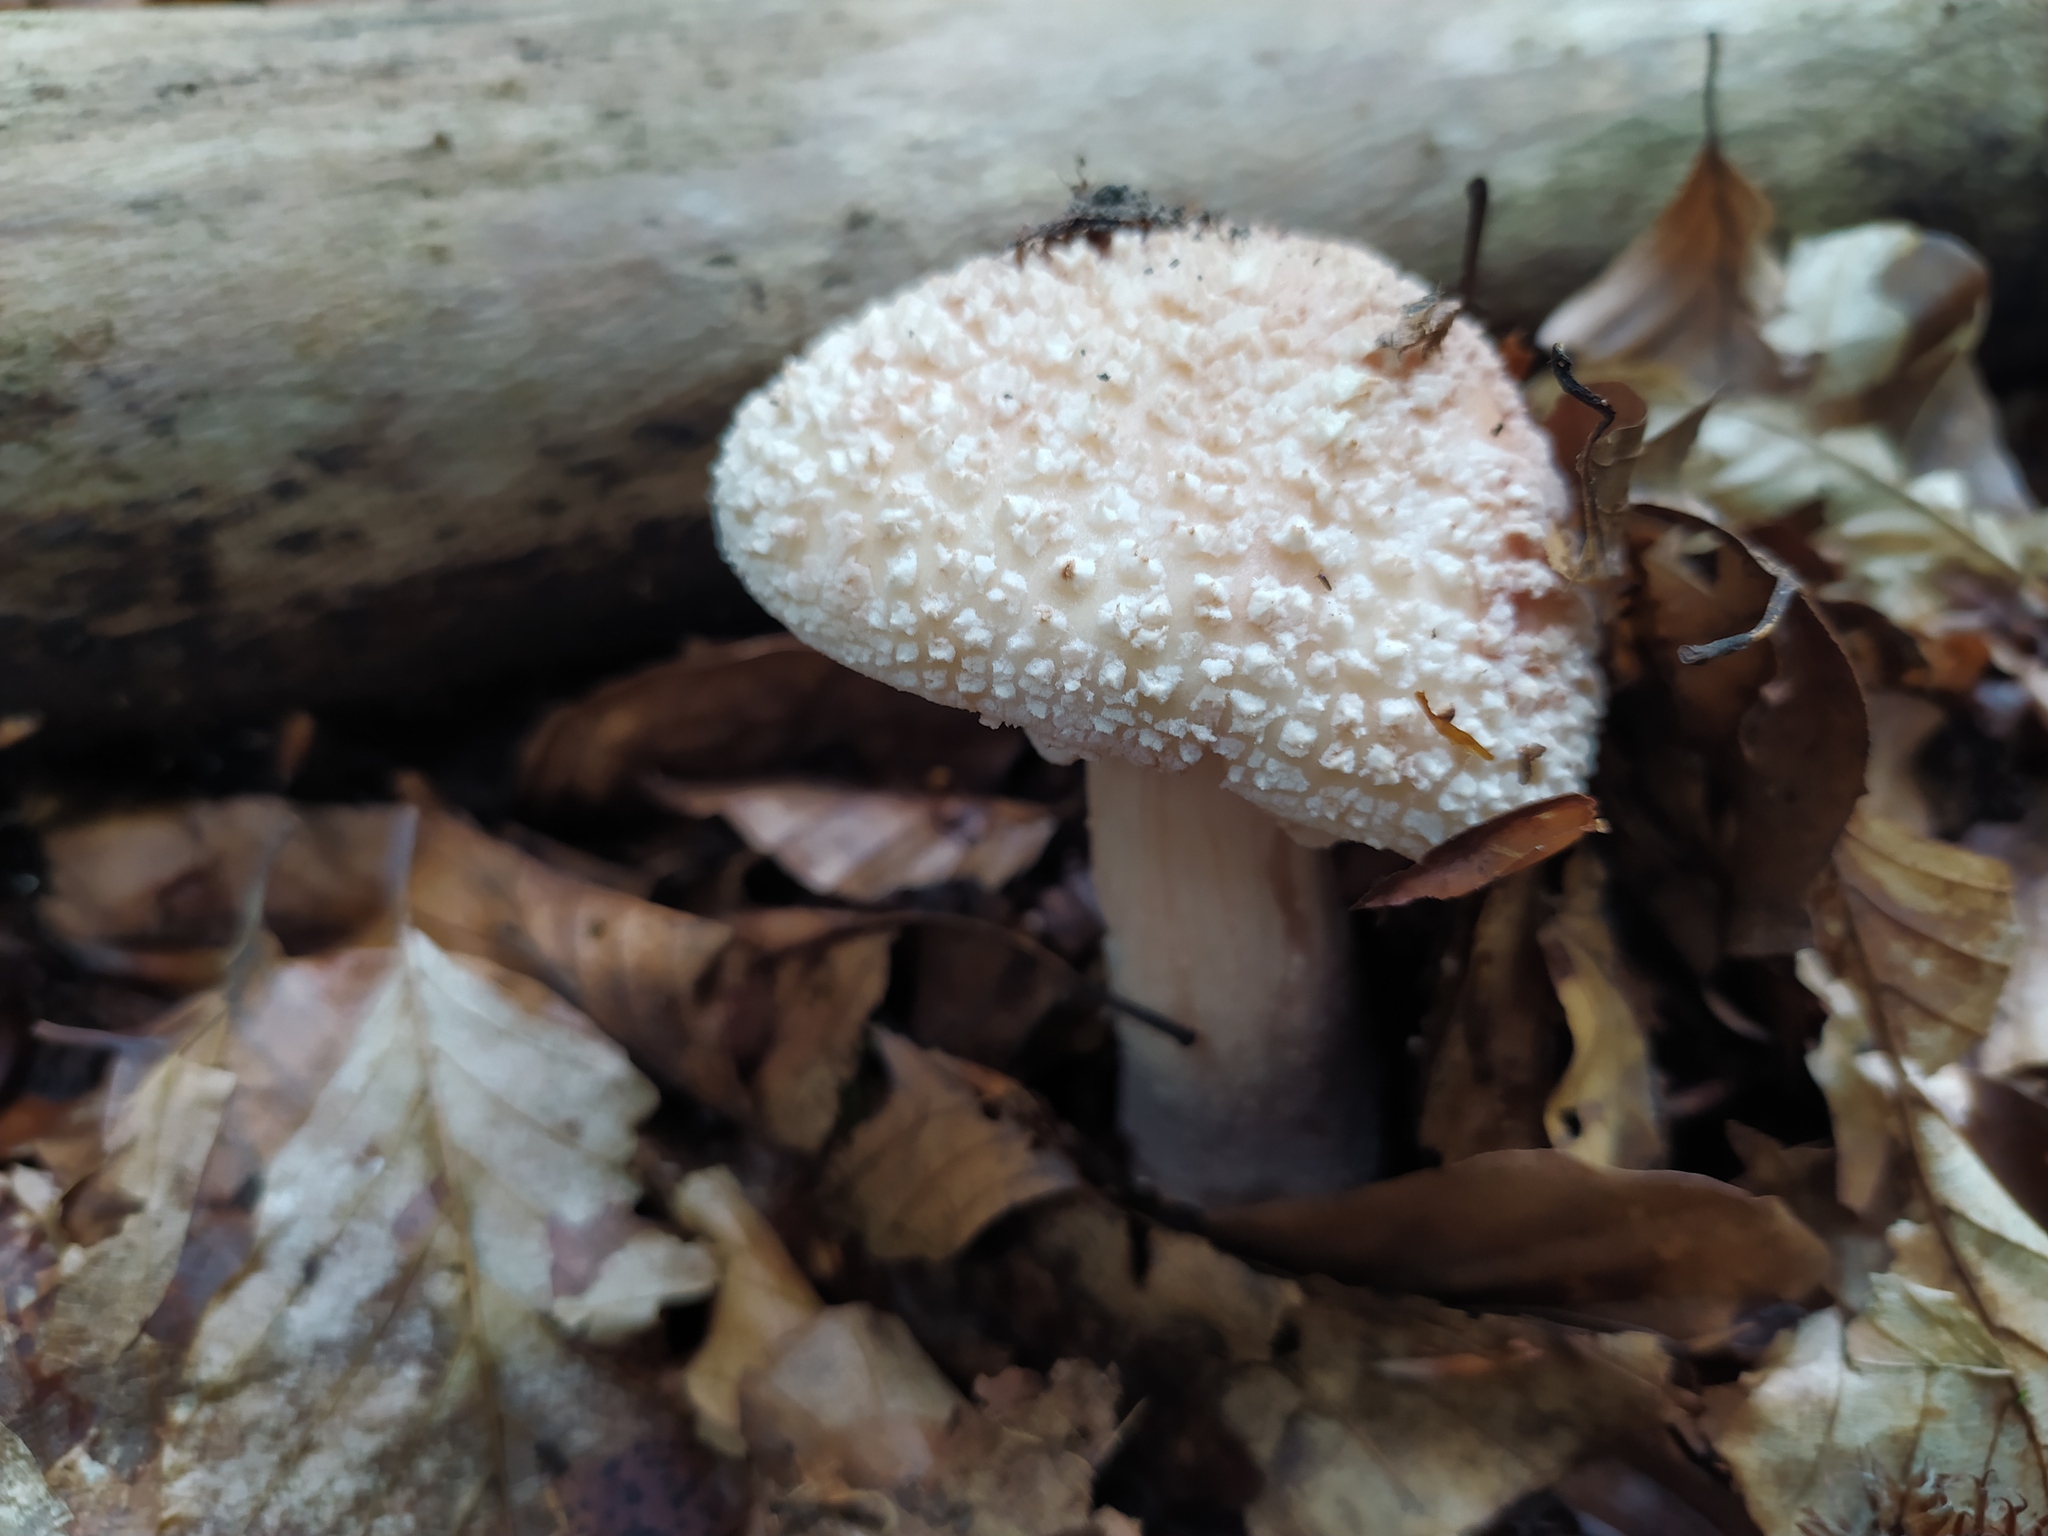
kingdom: Fungi
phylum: Basidiomycota
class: Agaricomycetes
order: Agaricales
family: Amanitaceae
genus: Amanita
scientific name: Amanita rubescens
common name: Blusher
